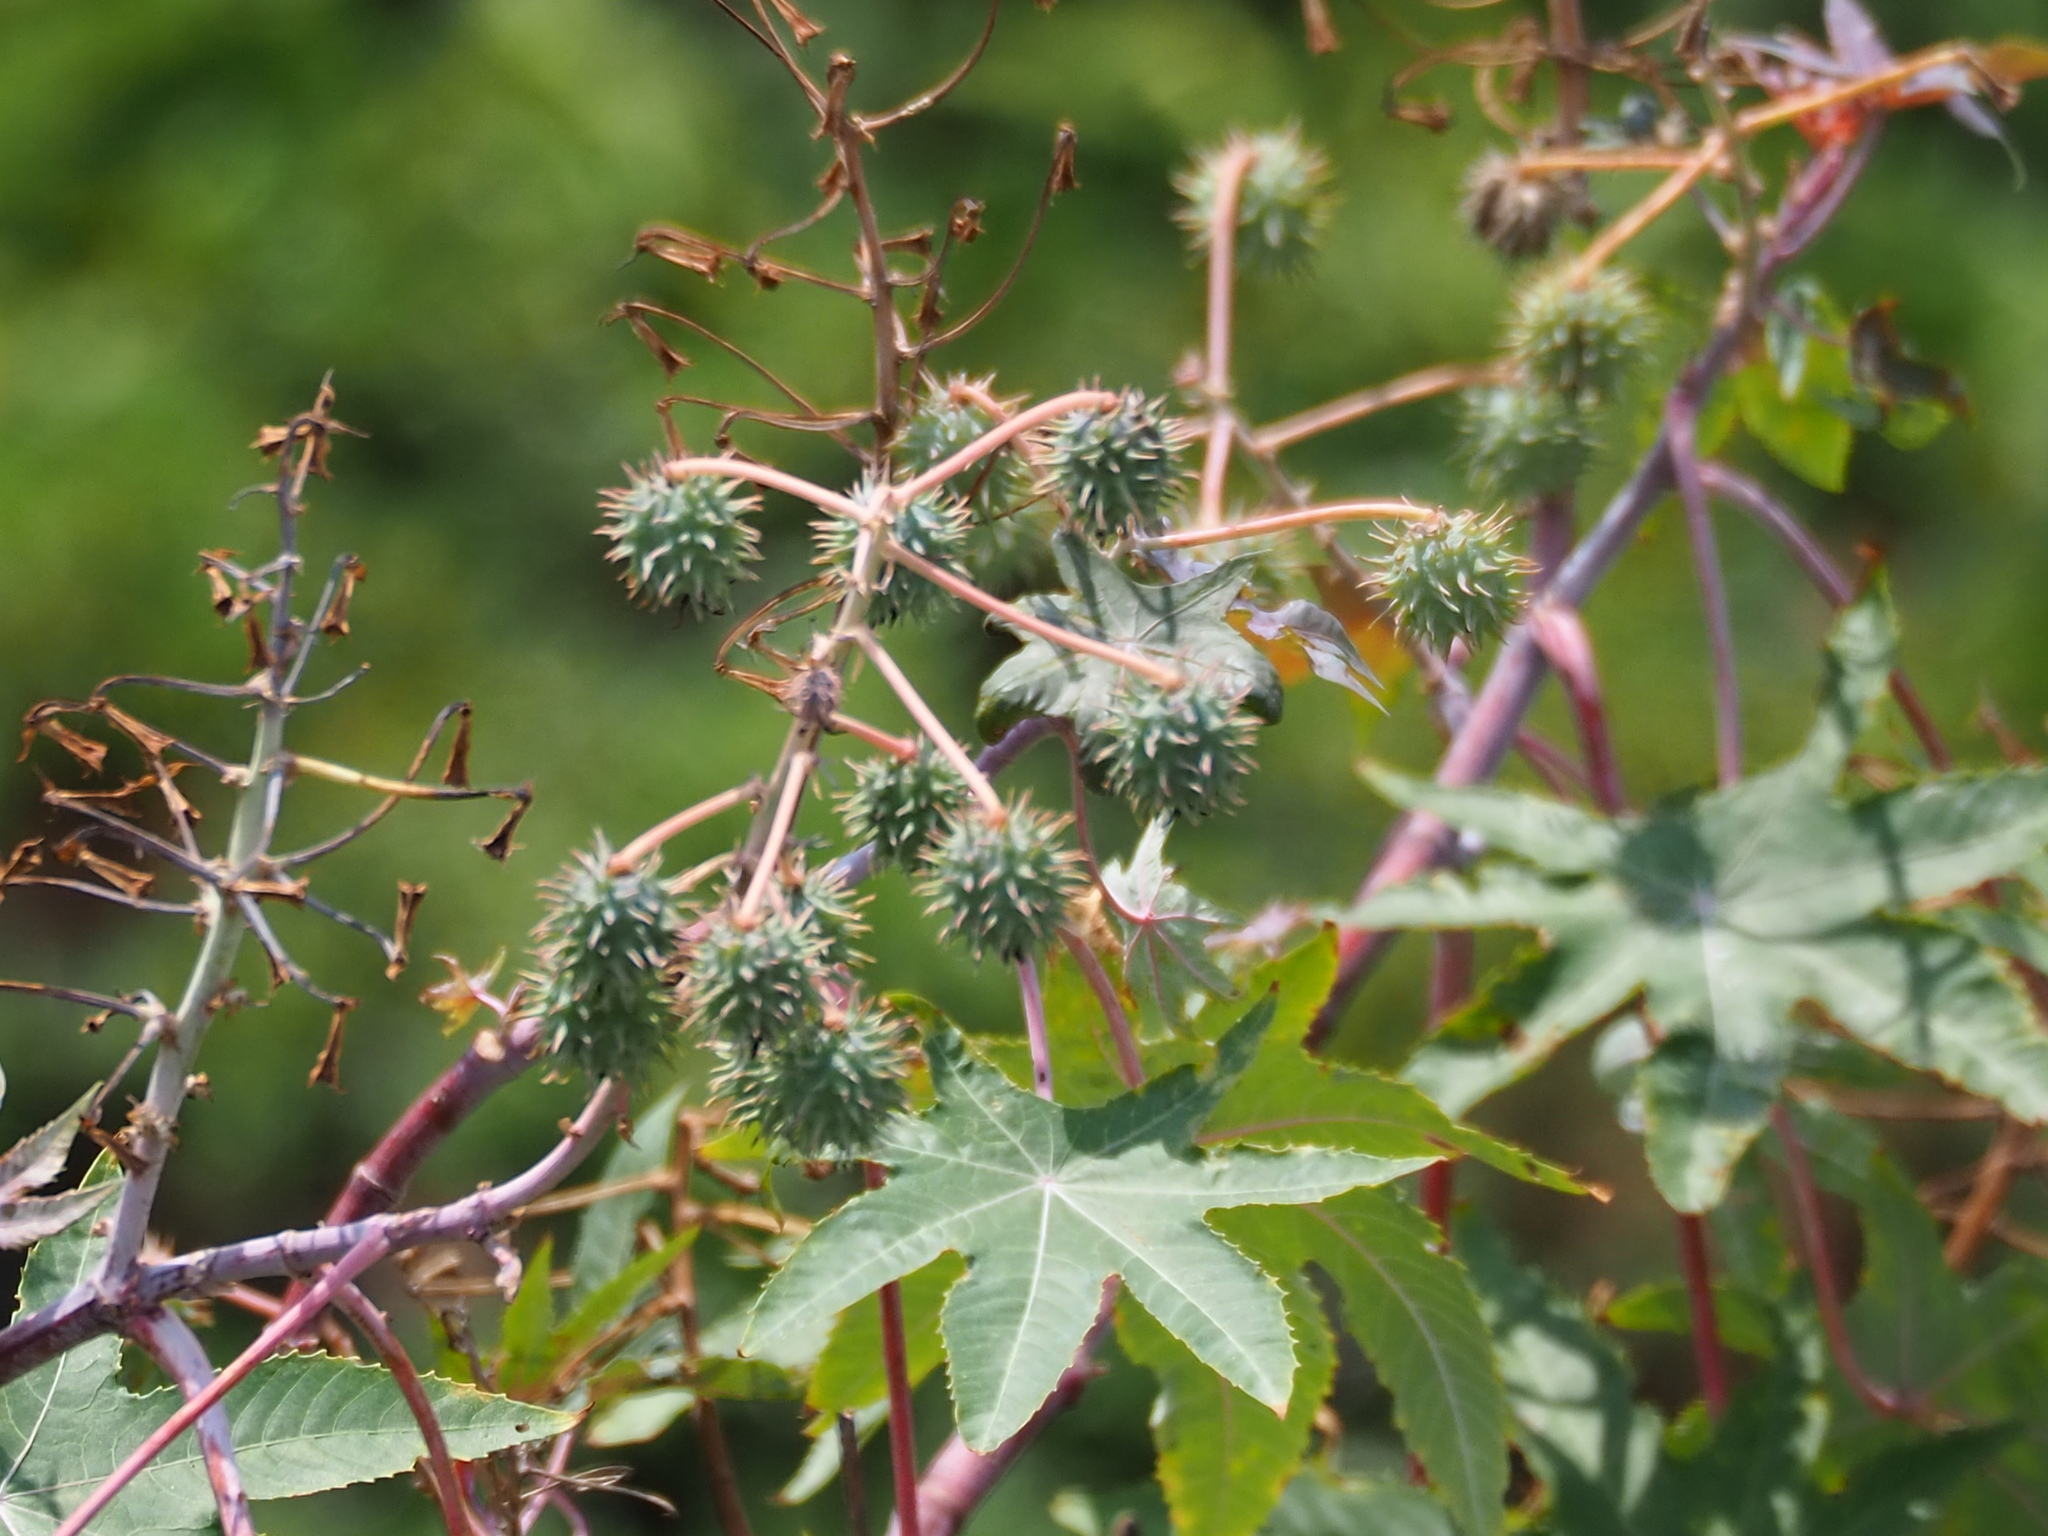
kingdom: Plantae
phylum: Tracheophyta
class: Magnoliopsida
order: Malpighiales
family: Euphorbiaceae
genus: Ricinus
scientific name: Ricinus communis
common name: Castor-oil-plant
